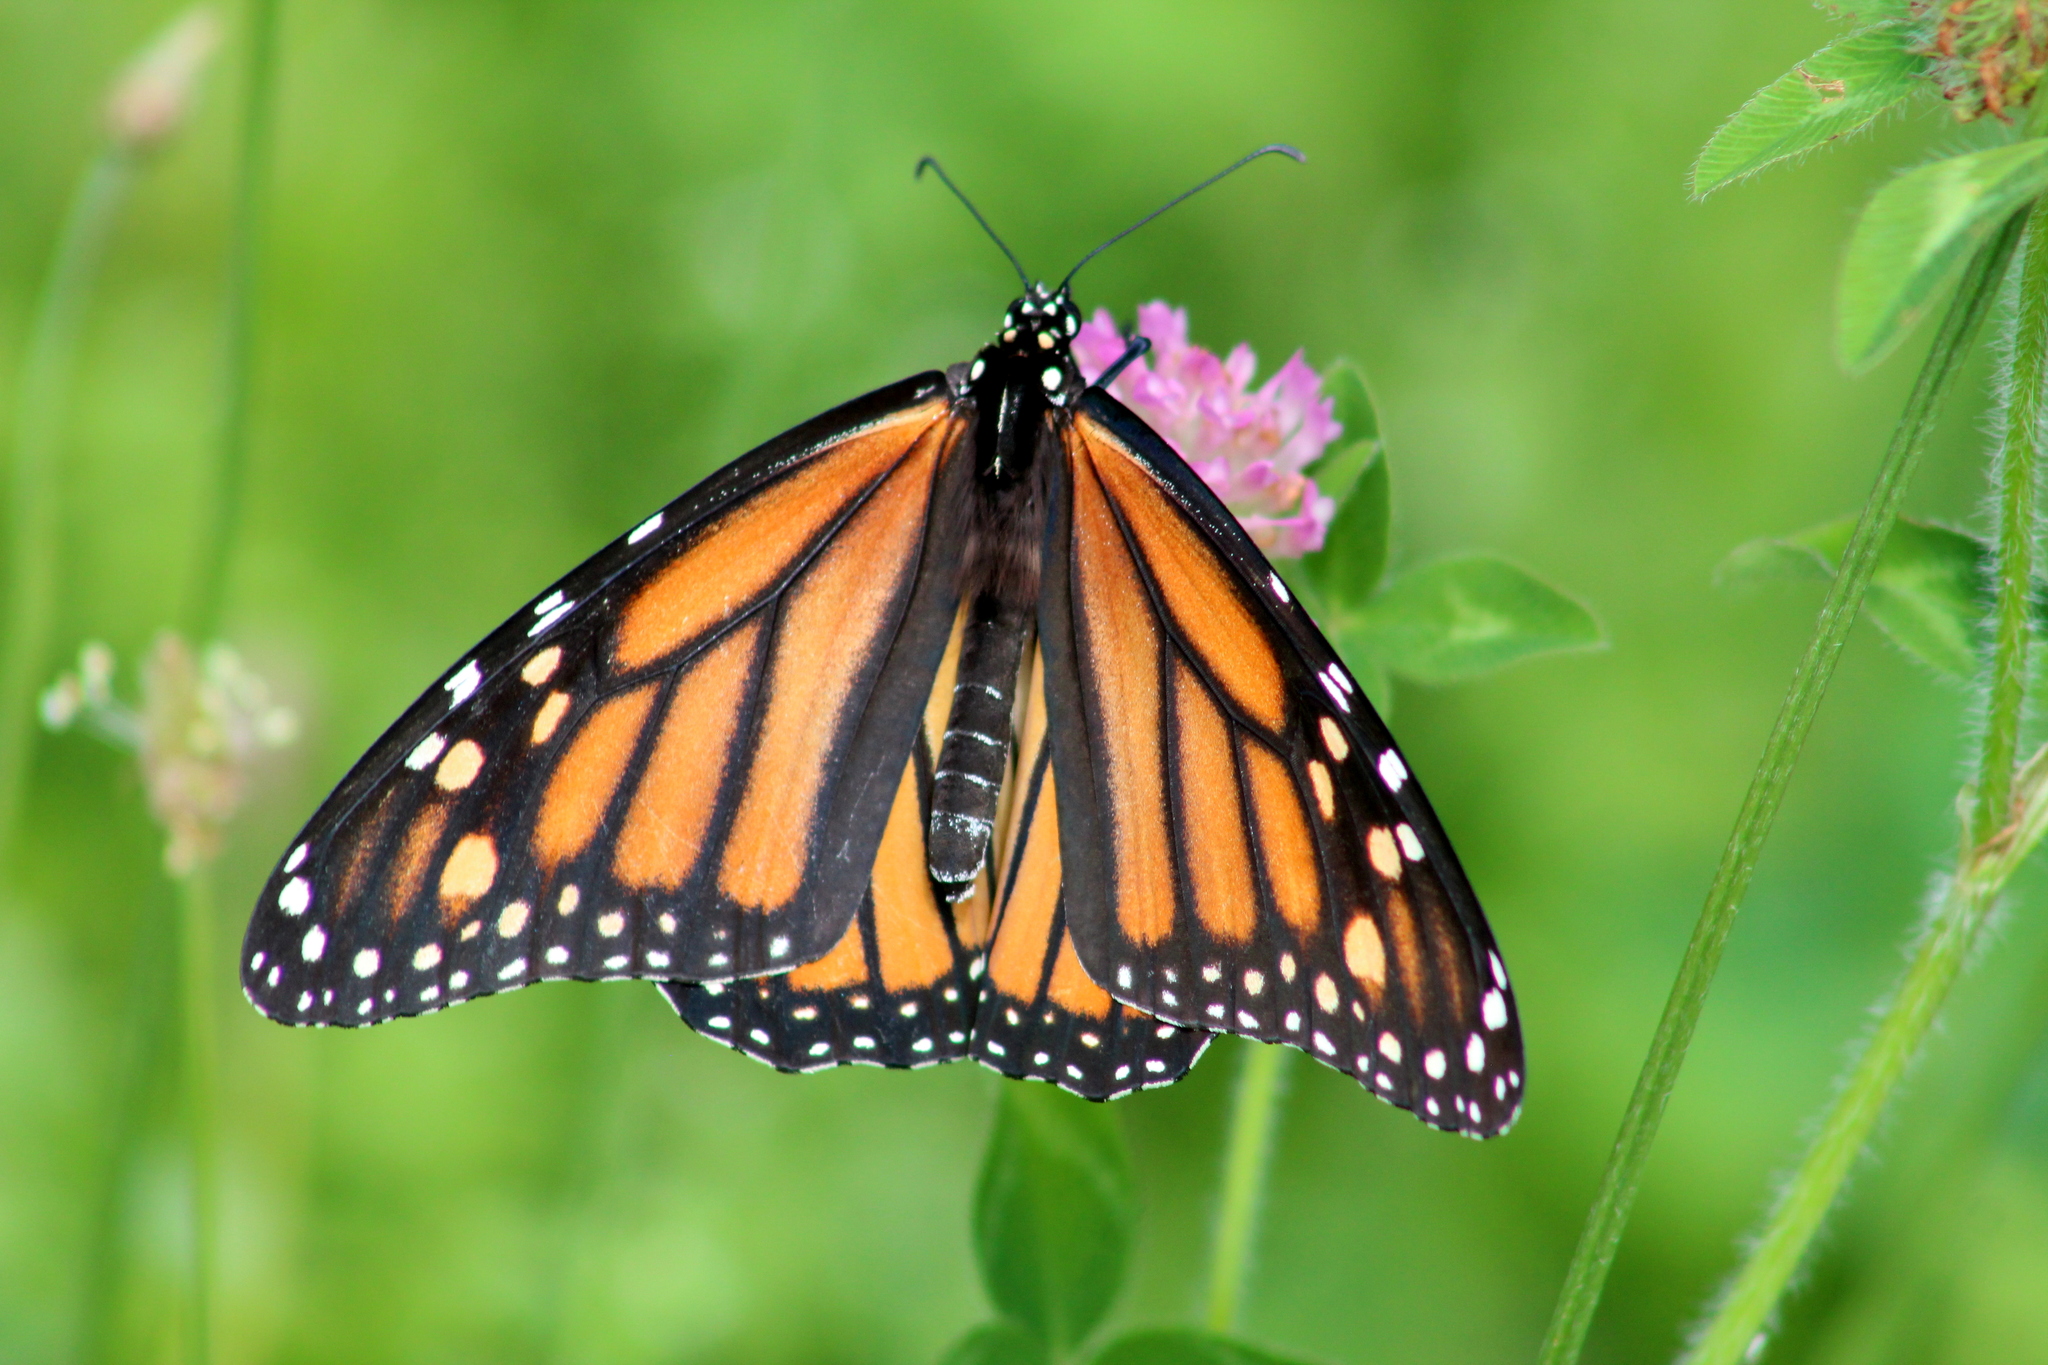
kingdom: Animalia
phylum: Arthropoda
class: Insecta
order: Lepidoptera
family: Nymphalidae
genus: Danaus
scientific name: Danaus plexippus
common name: Monarch
